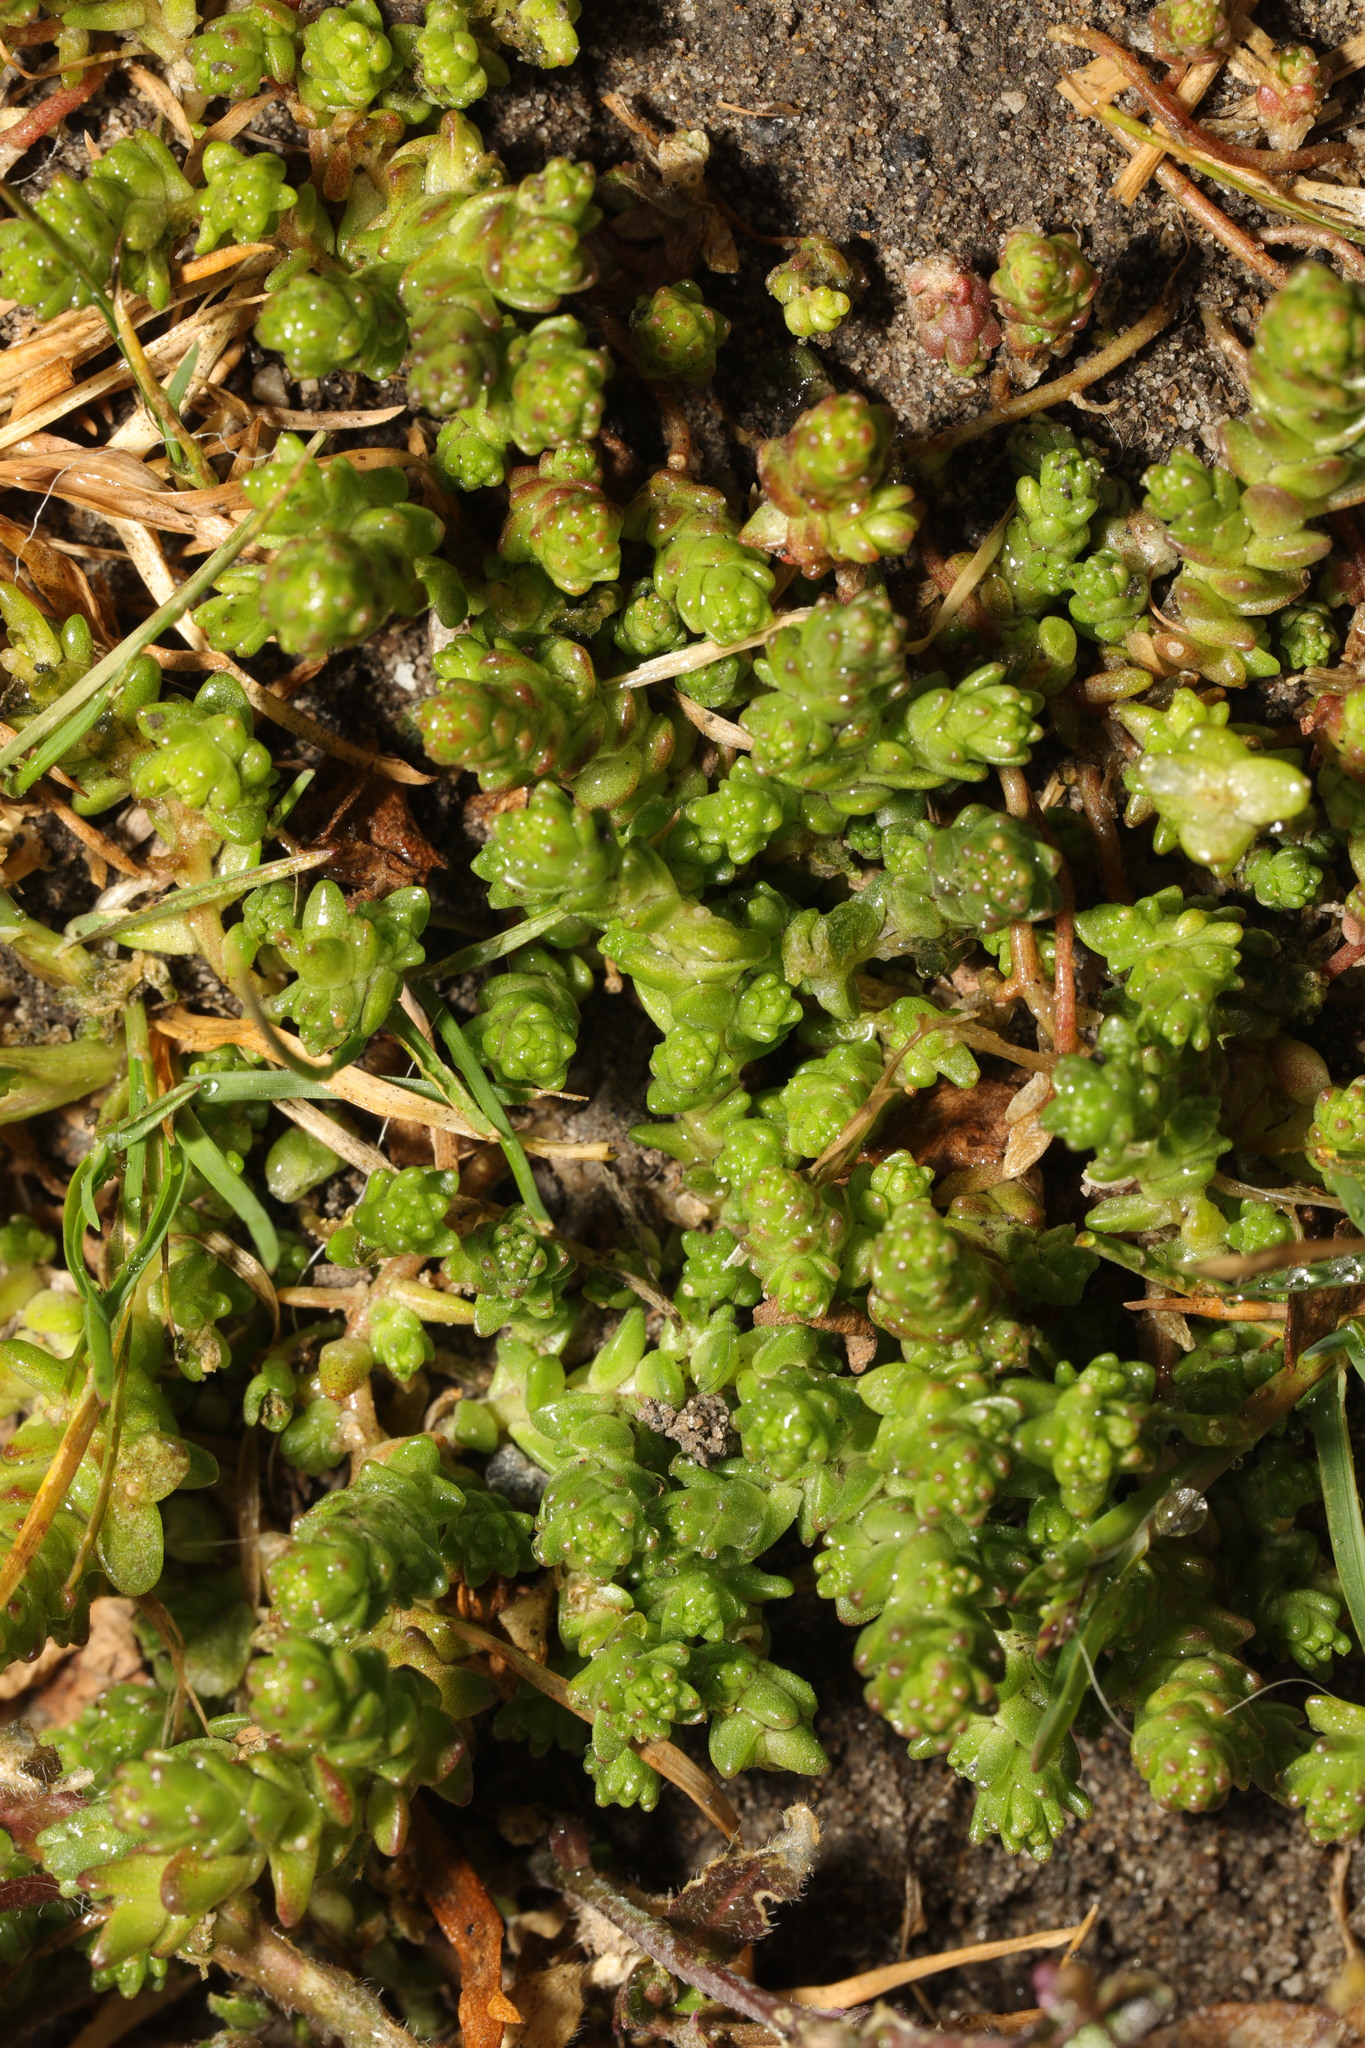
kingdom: Plantae
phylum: Tracheophyta
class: Magnoliopsida
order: Saxifragales
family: Crassulaceae
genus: Sedum
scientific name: Sedum acre
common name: Biting stonecrop
